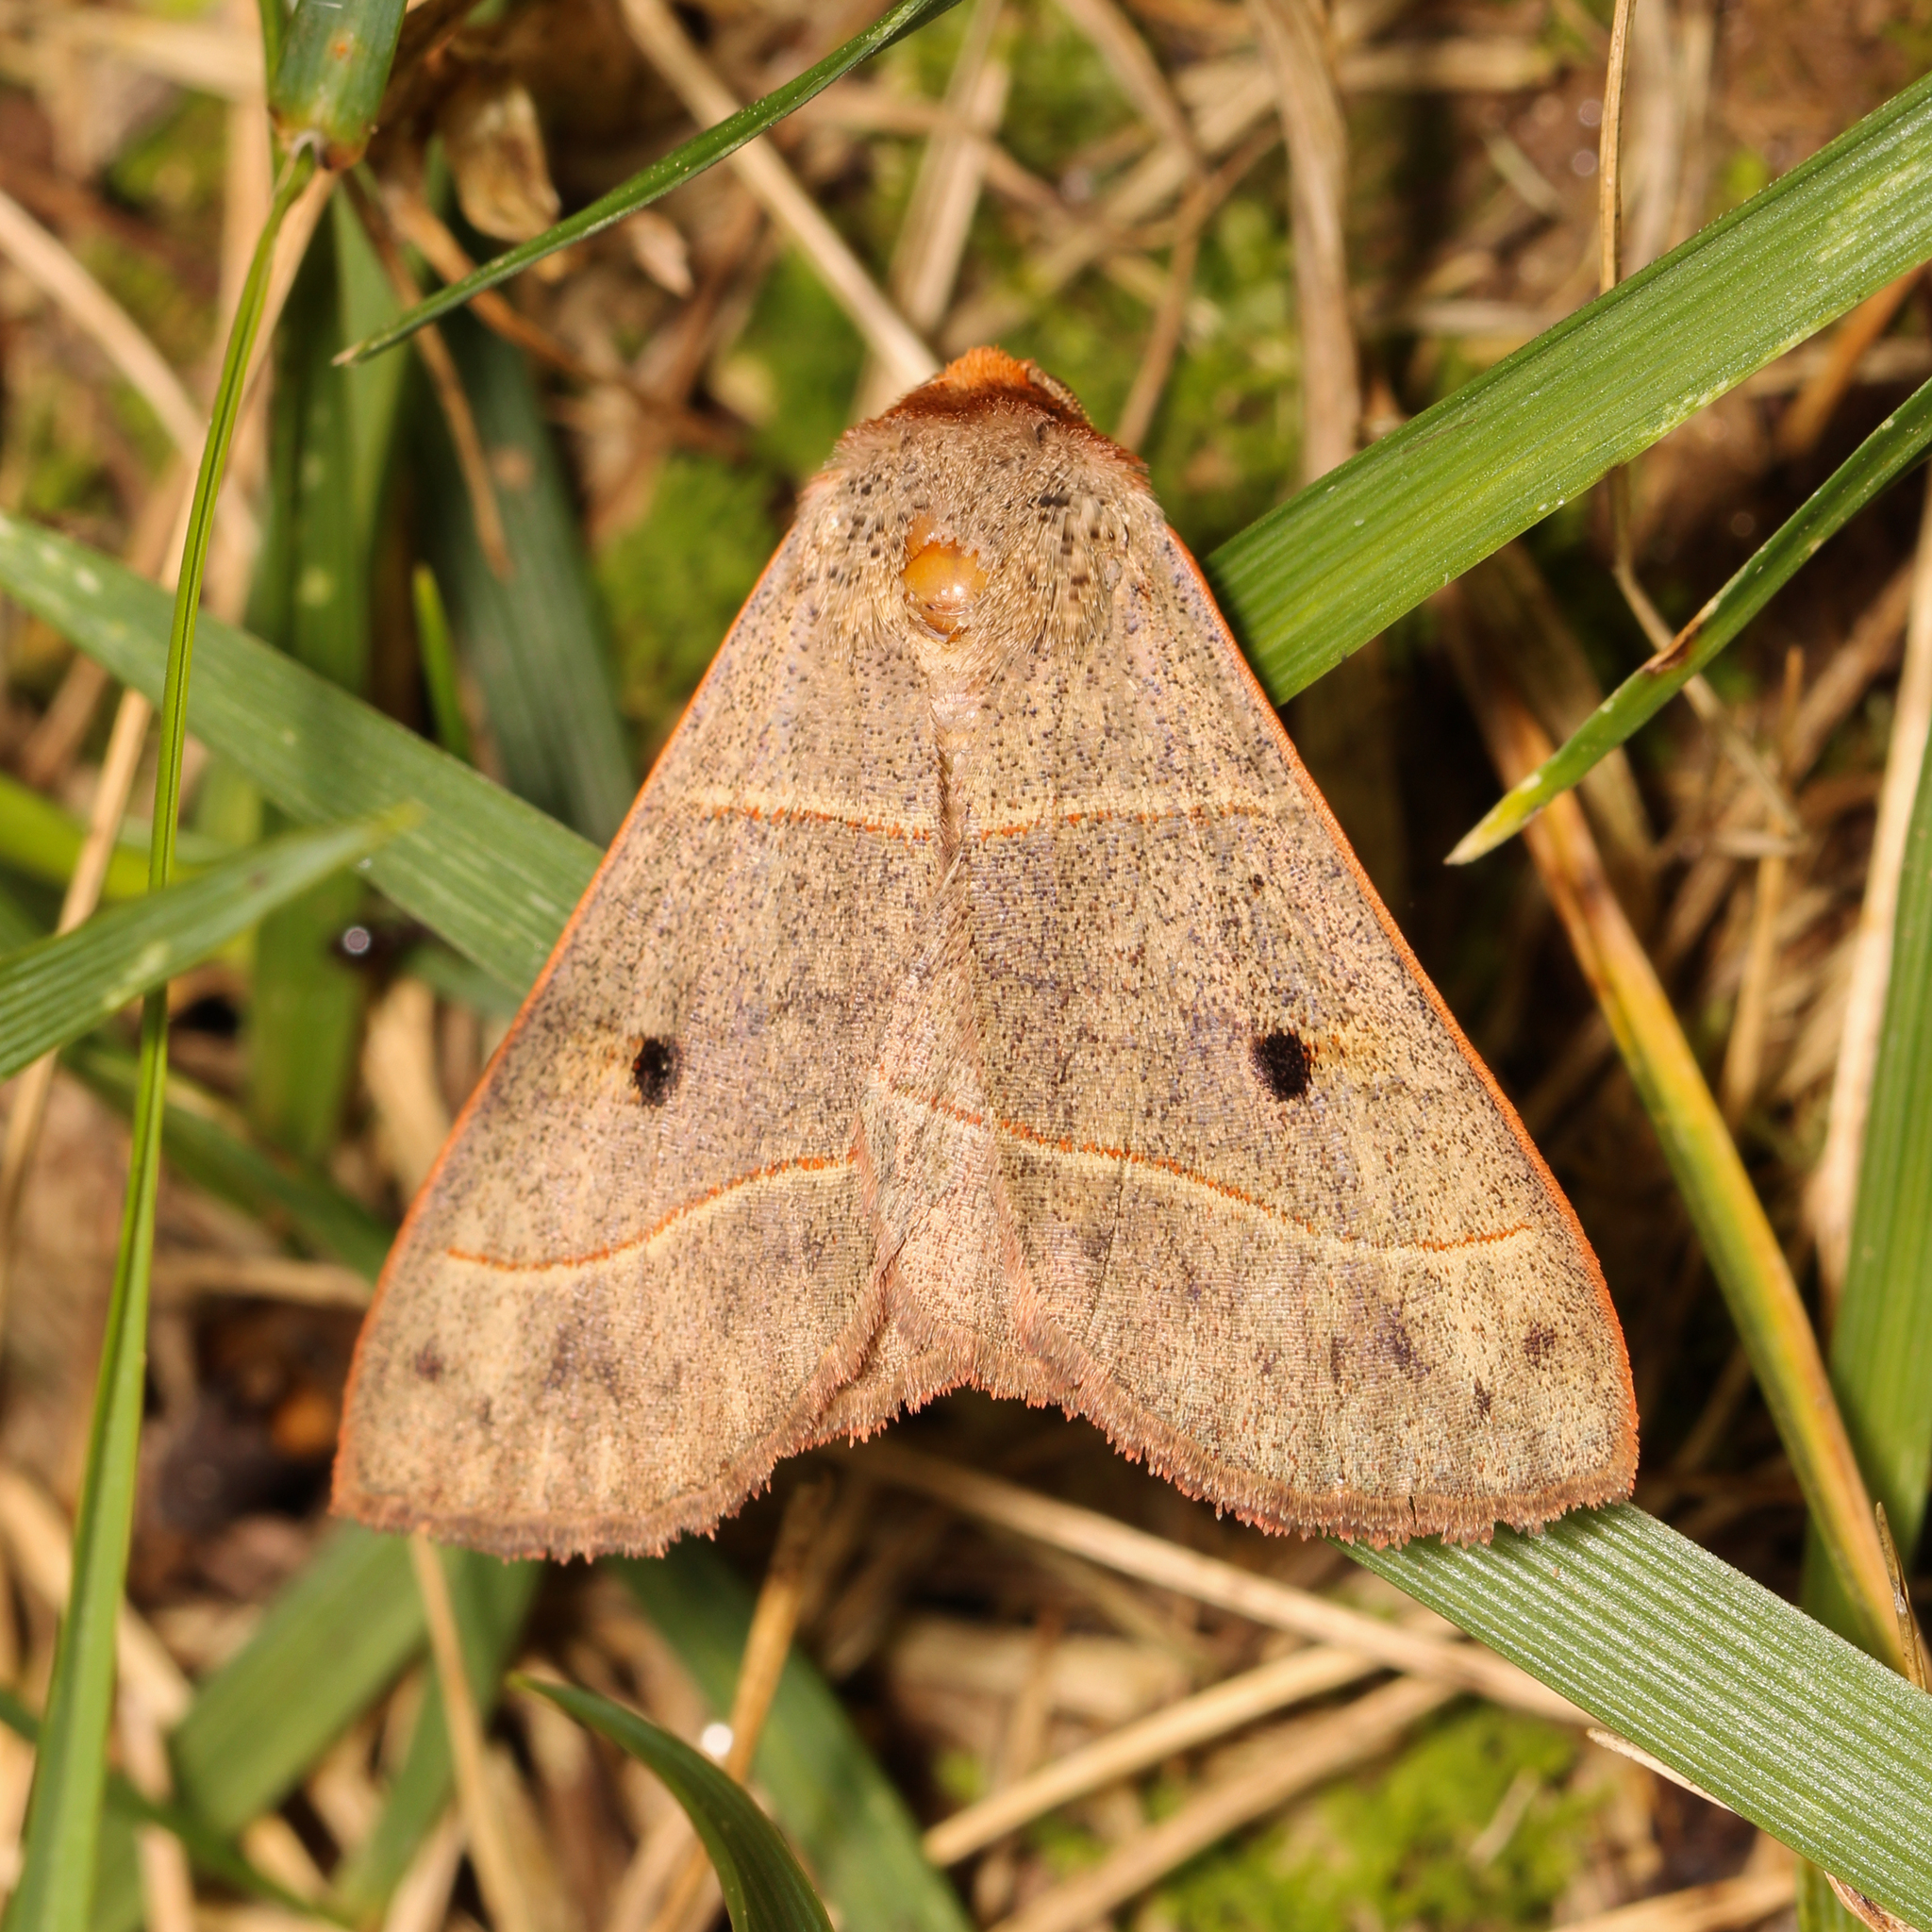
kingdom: Animalia
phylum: Arthropoda
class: Insecta
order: Lepidoptera
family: Erebidae
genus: Panopoda
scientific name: Panopoda rufimargo
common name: Red-lined panopoda moth
